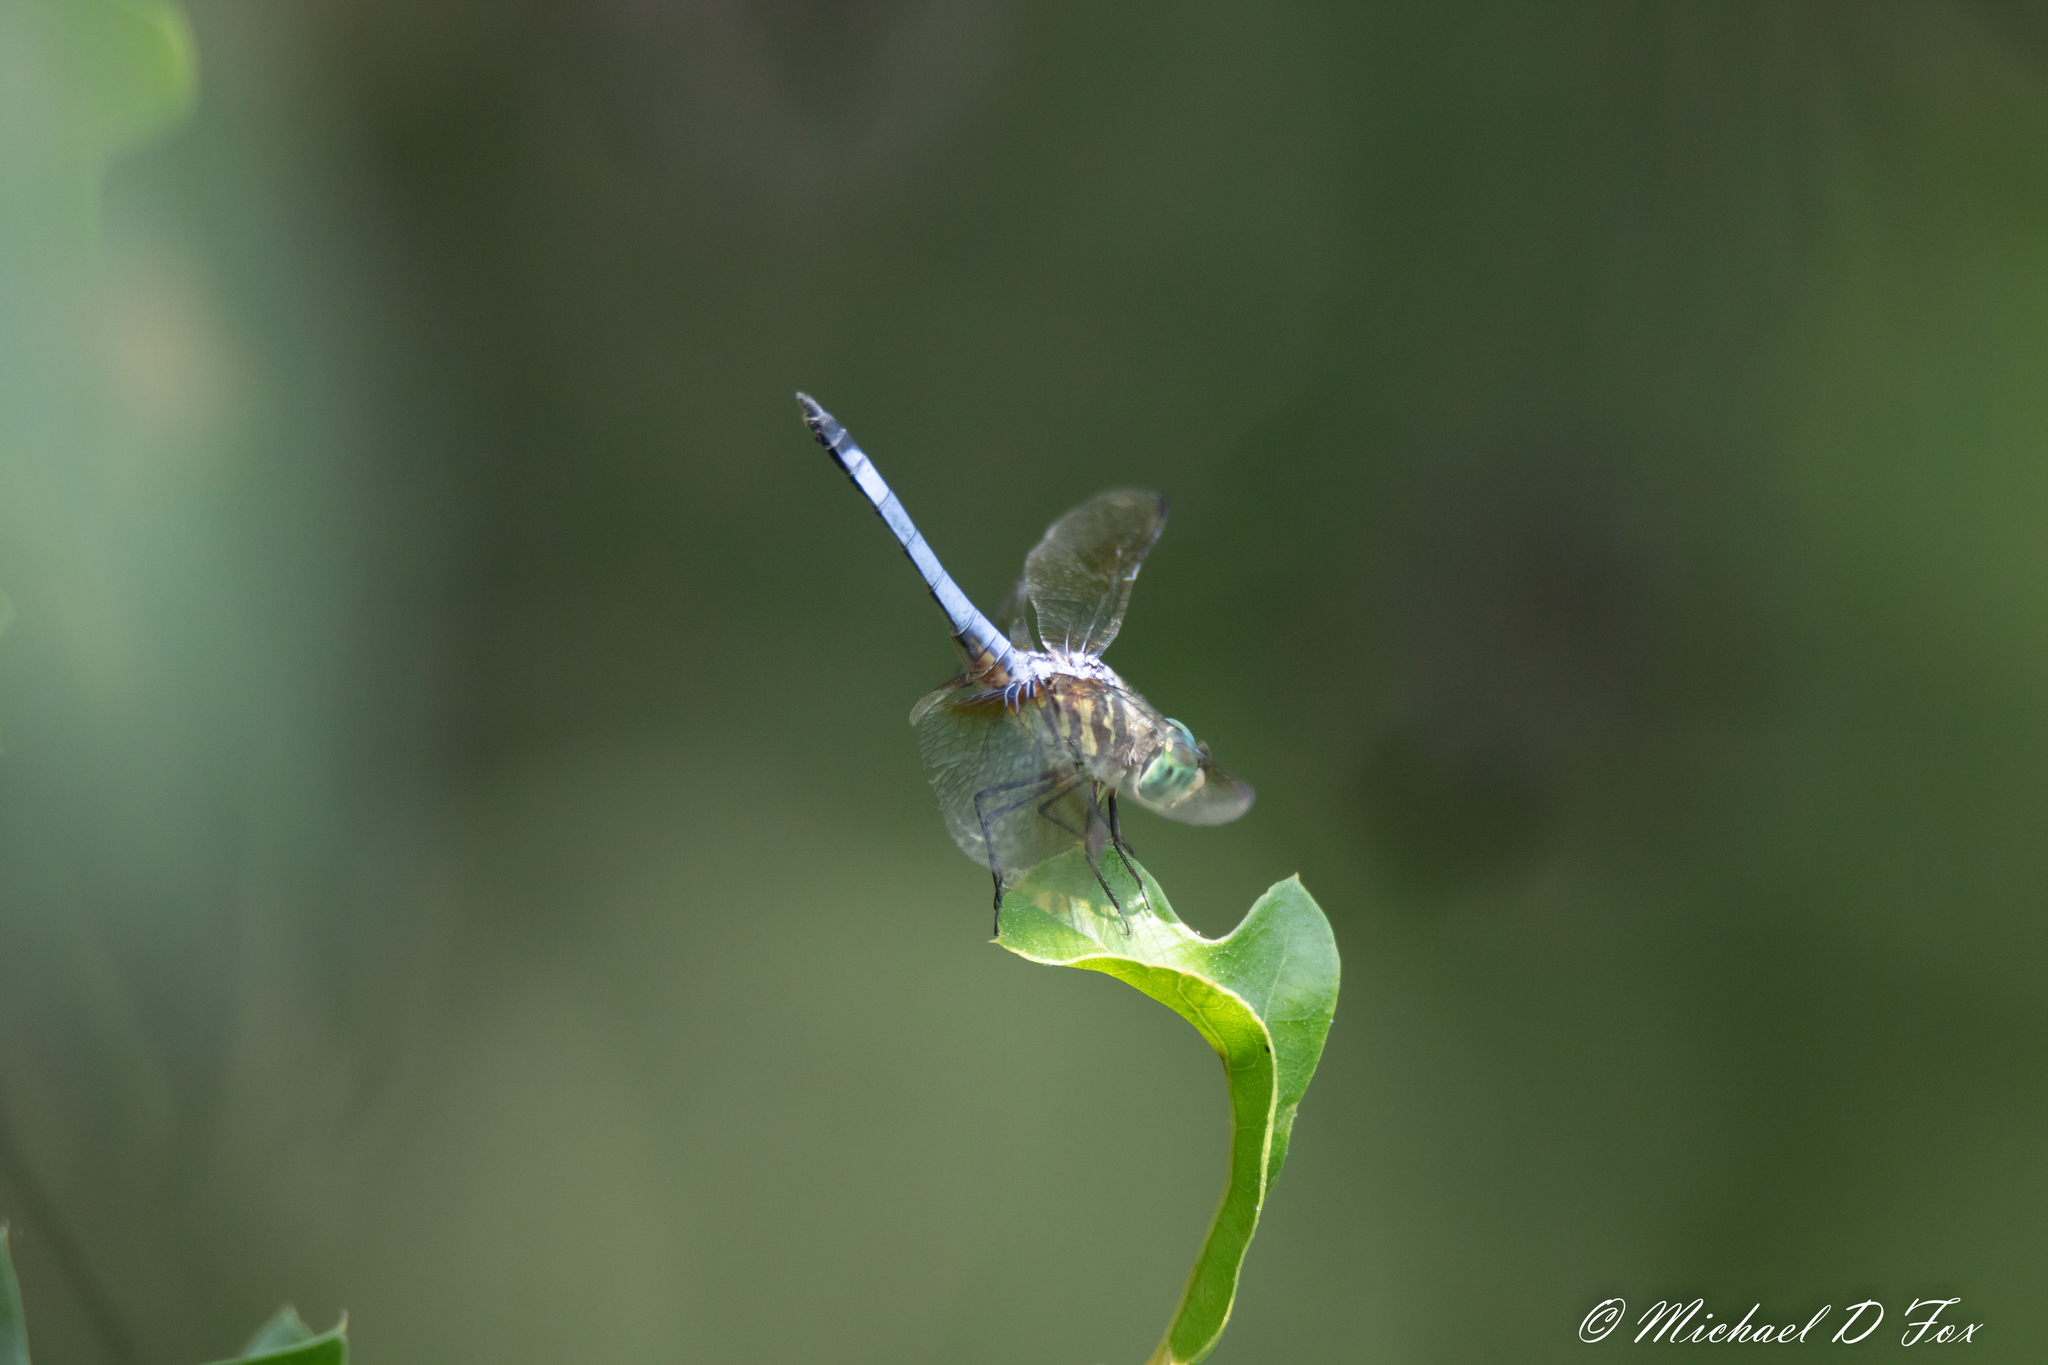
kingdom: Animalia
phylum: Arthropoda
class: Insecta
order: Odonata
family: Libellulidae
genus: Pachydiplax
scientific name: Pachydiplax longipennis
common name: Blue dasher
